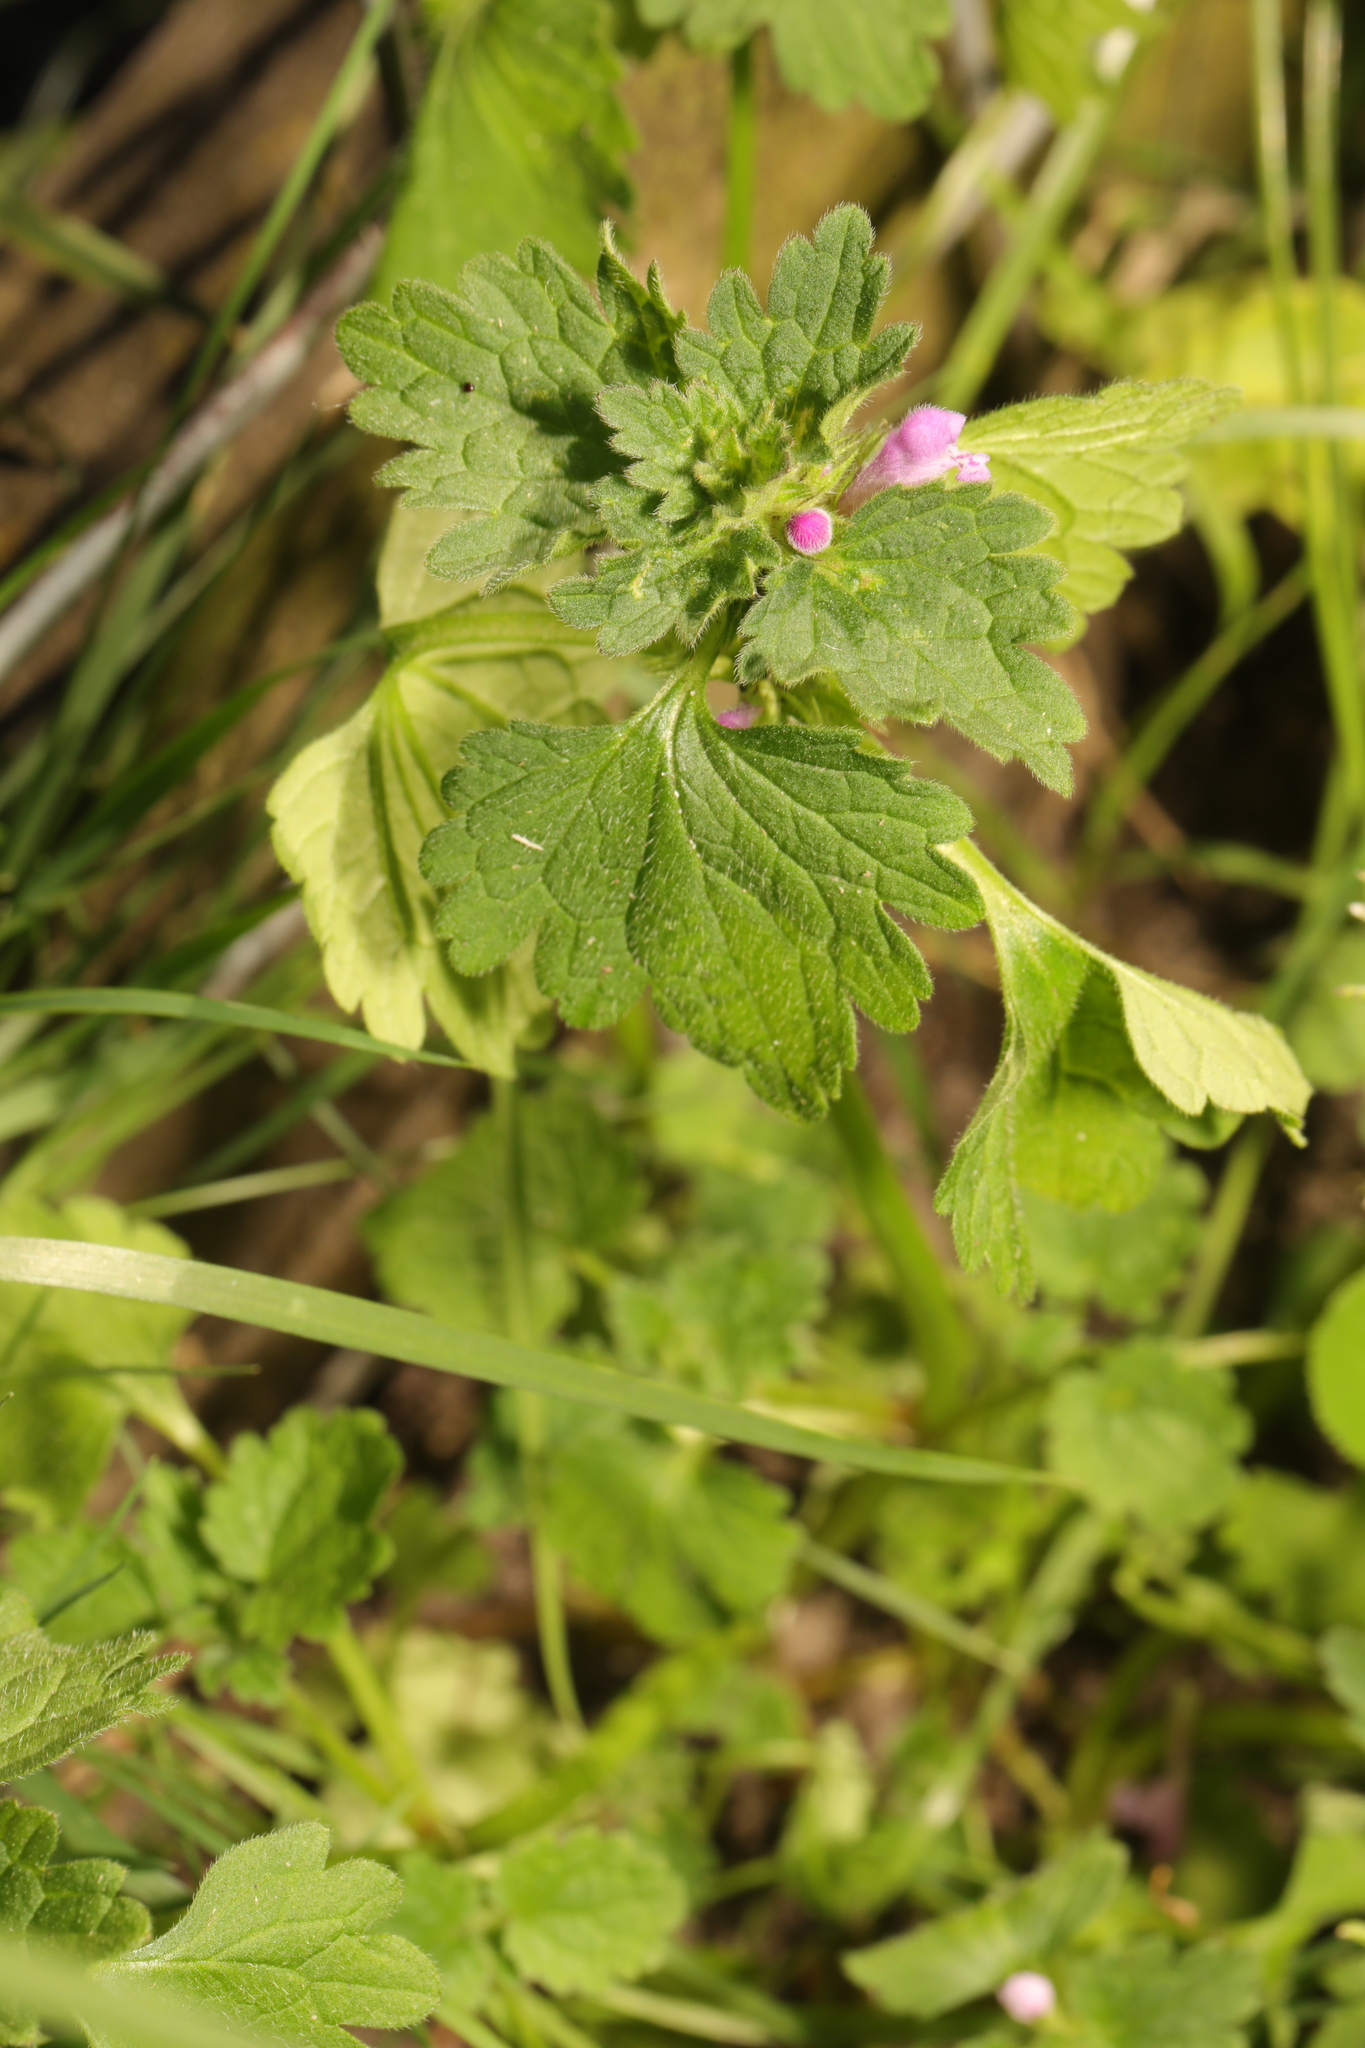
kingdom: Plantae
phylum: Tracheophyta
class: Magnoliopsida
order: Lamiales
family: Lamiaceae
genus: Lamium
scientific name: Lamium purpureum
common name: Red dead-nettle
